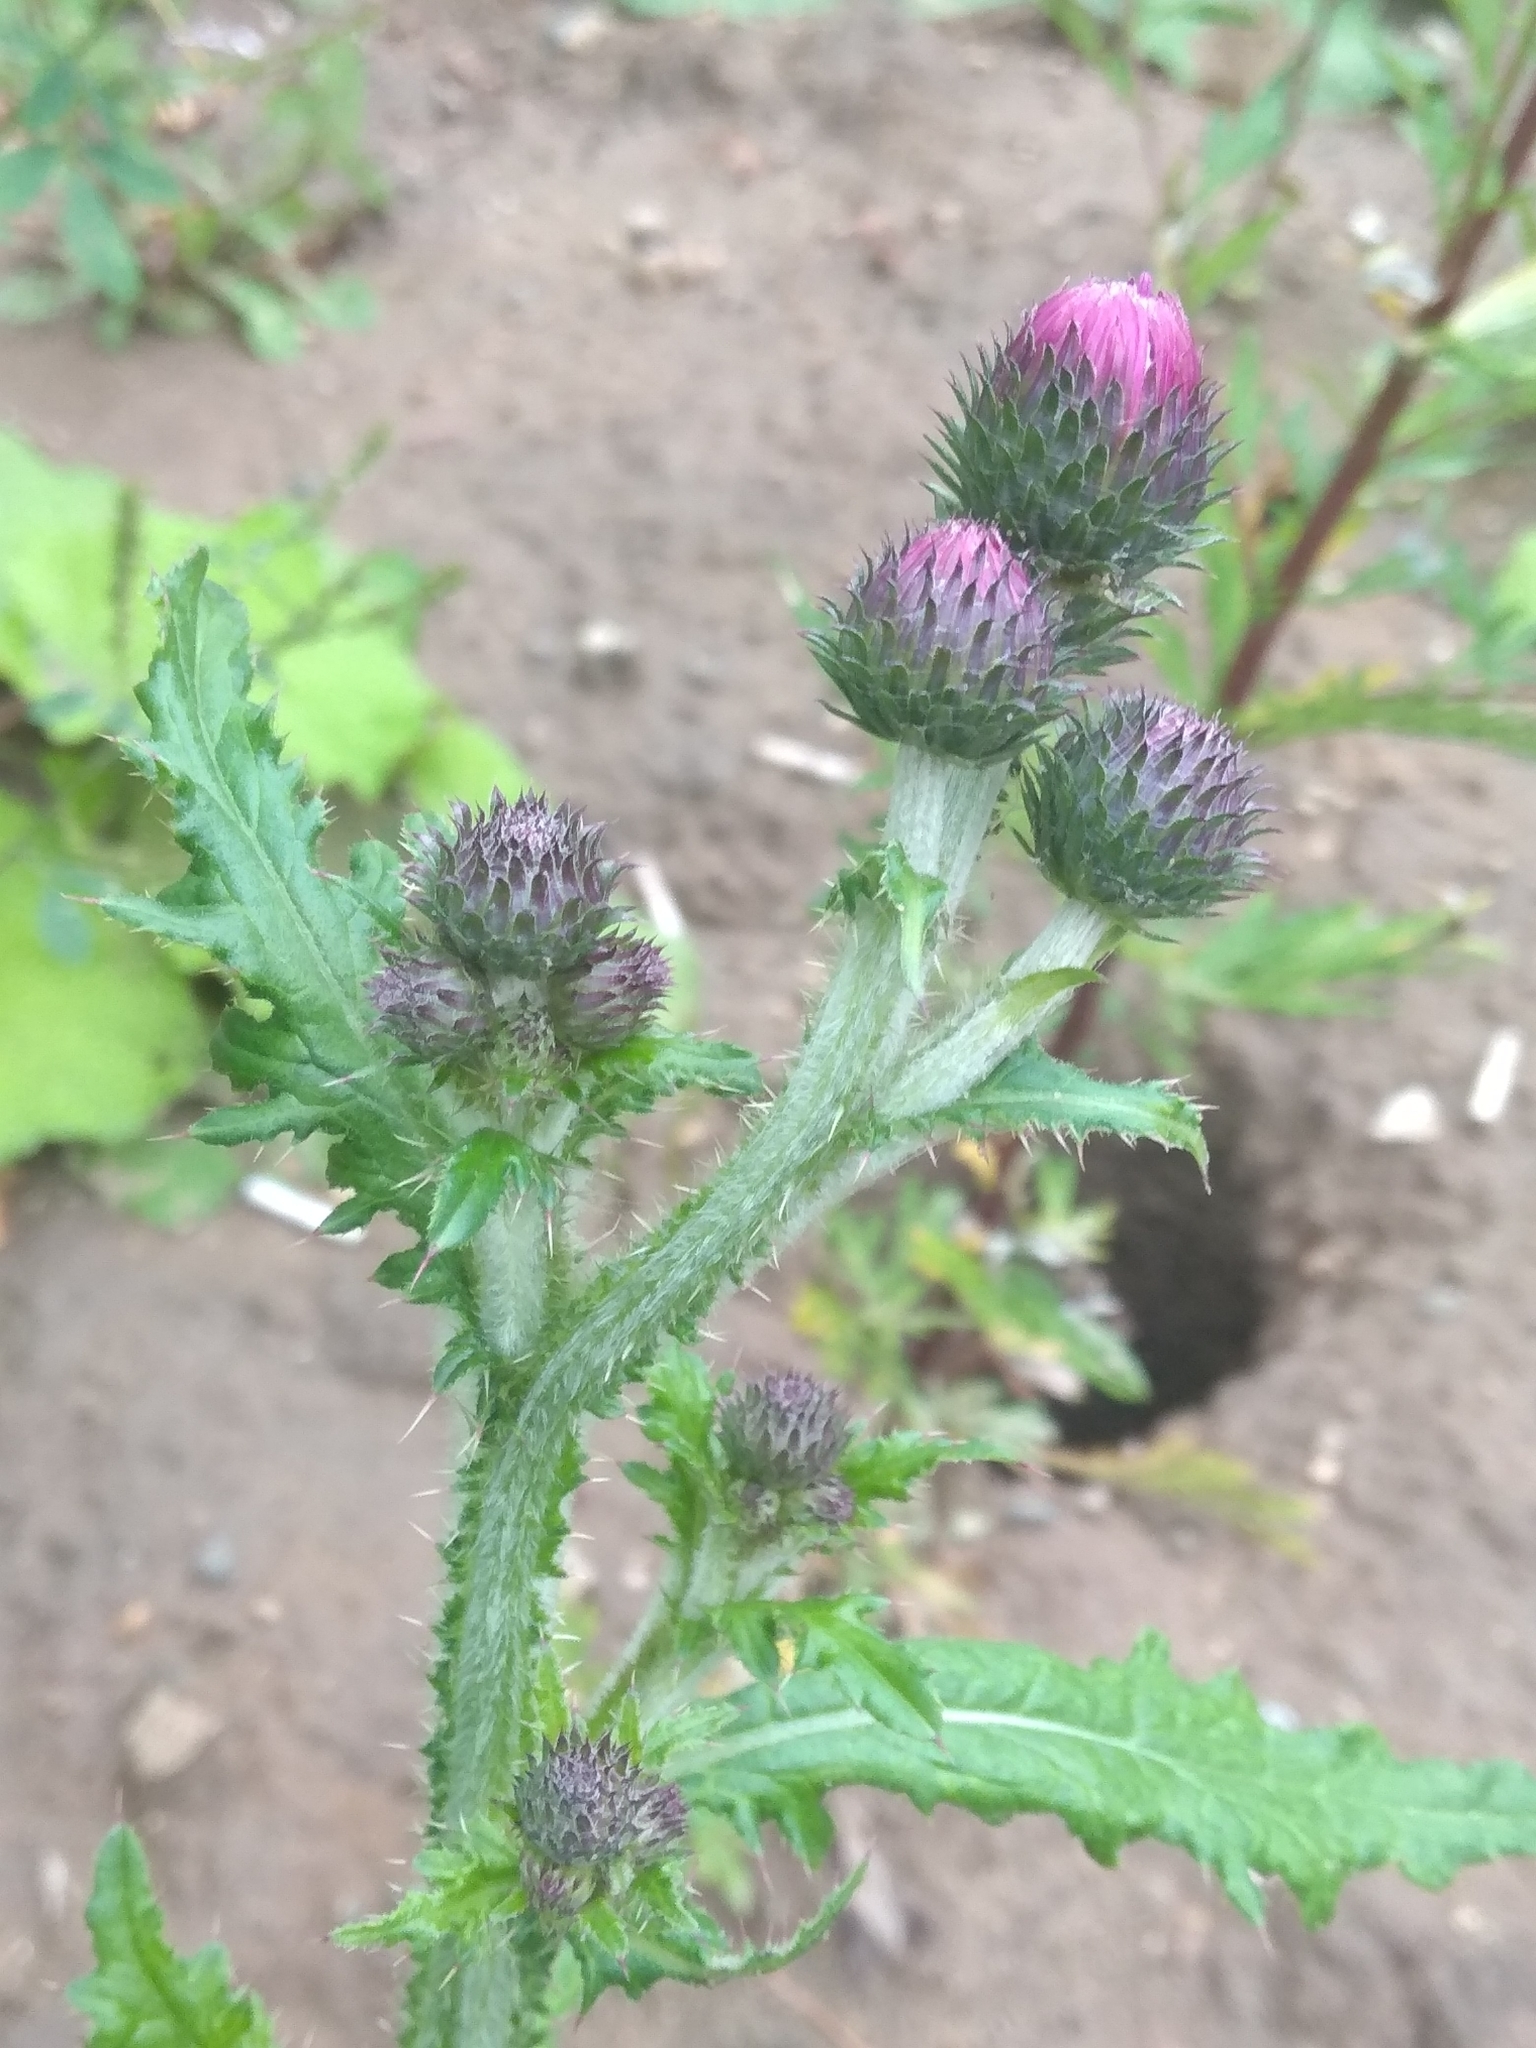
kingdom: Plantae
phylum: Tracheophyta
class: Magnoliopsida
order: Asterales
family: Asteraceae
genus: Carduus
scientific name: Carduus crispus
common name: Welted thistle
